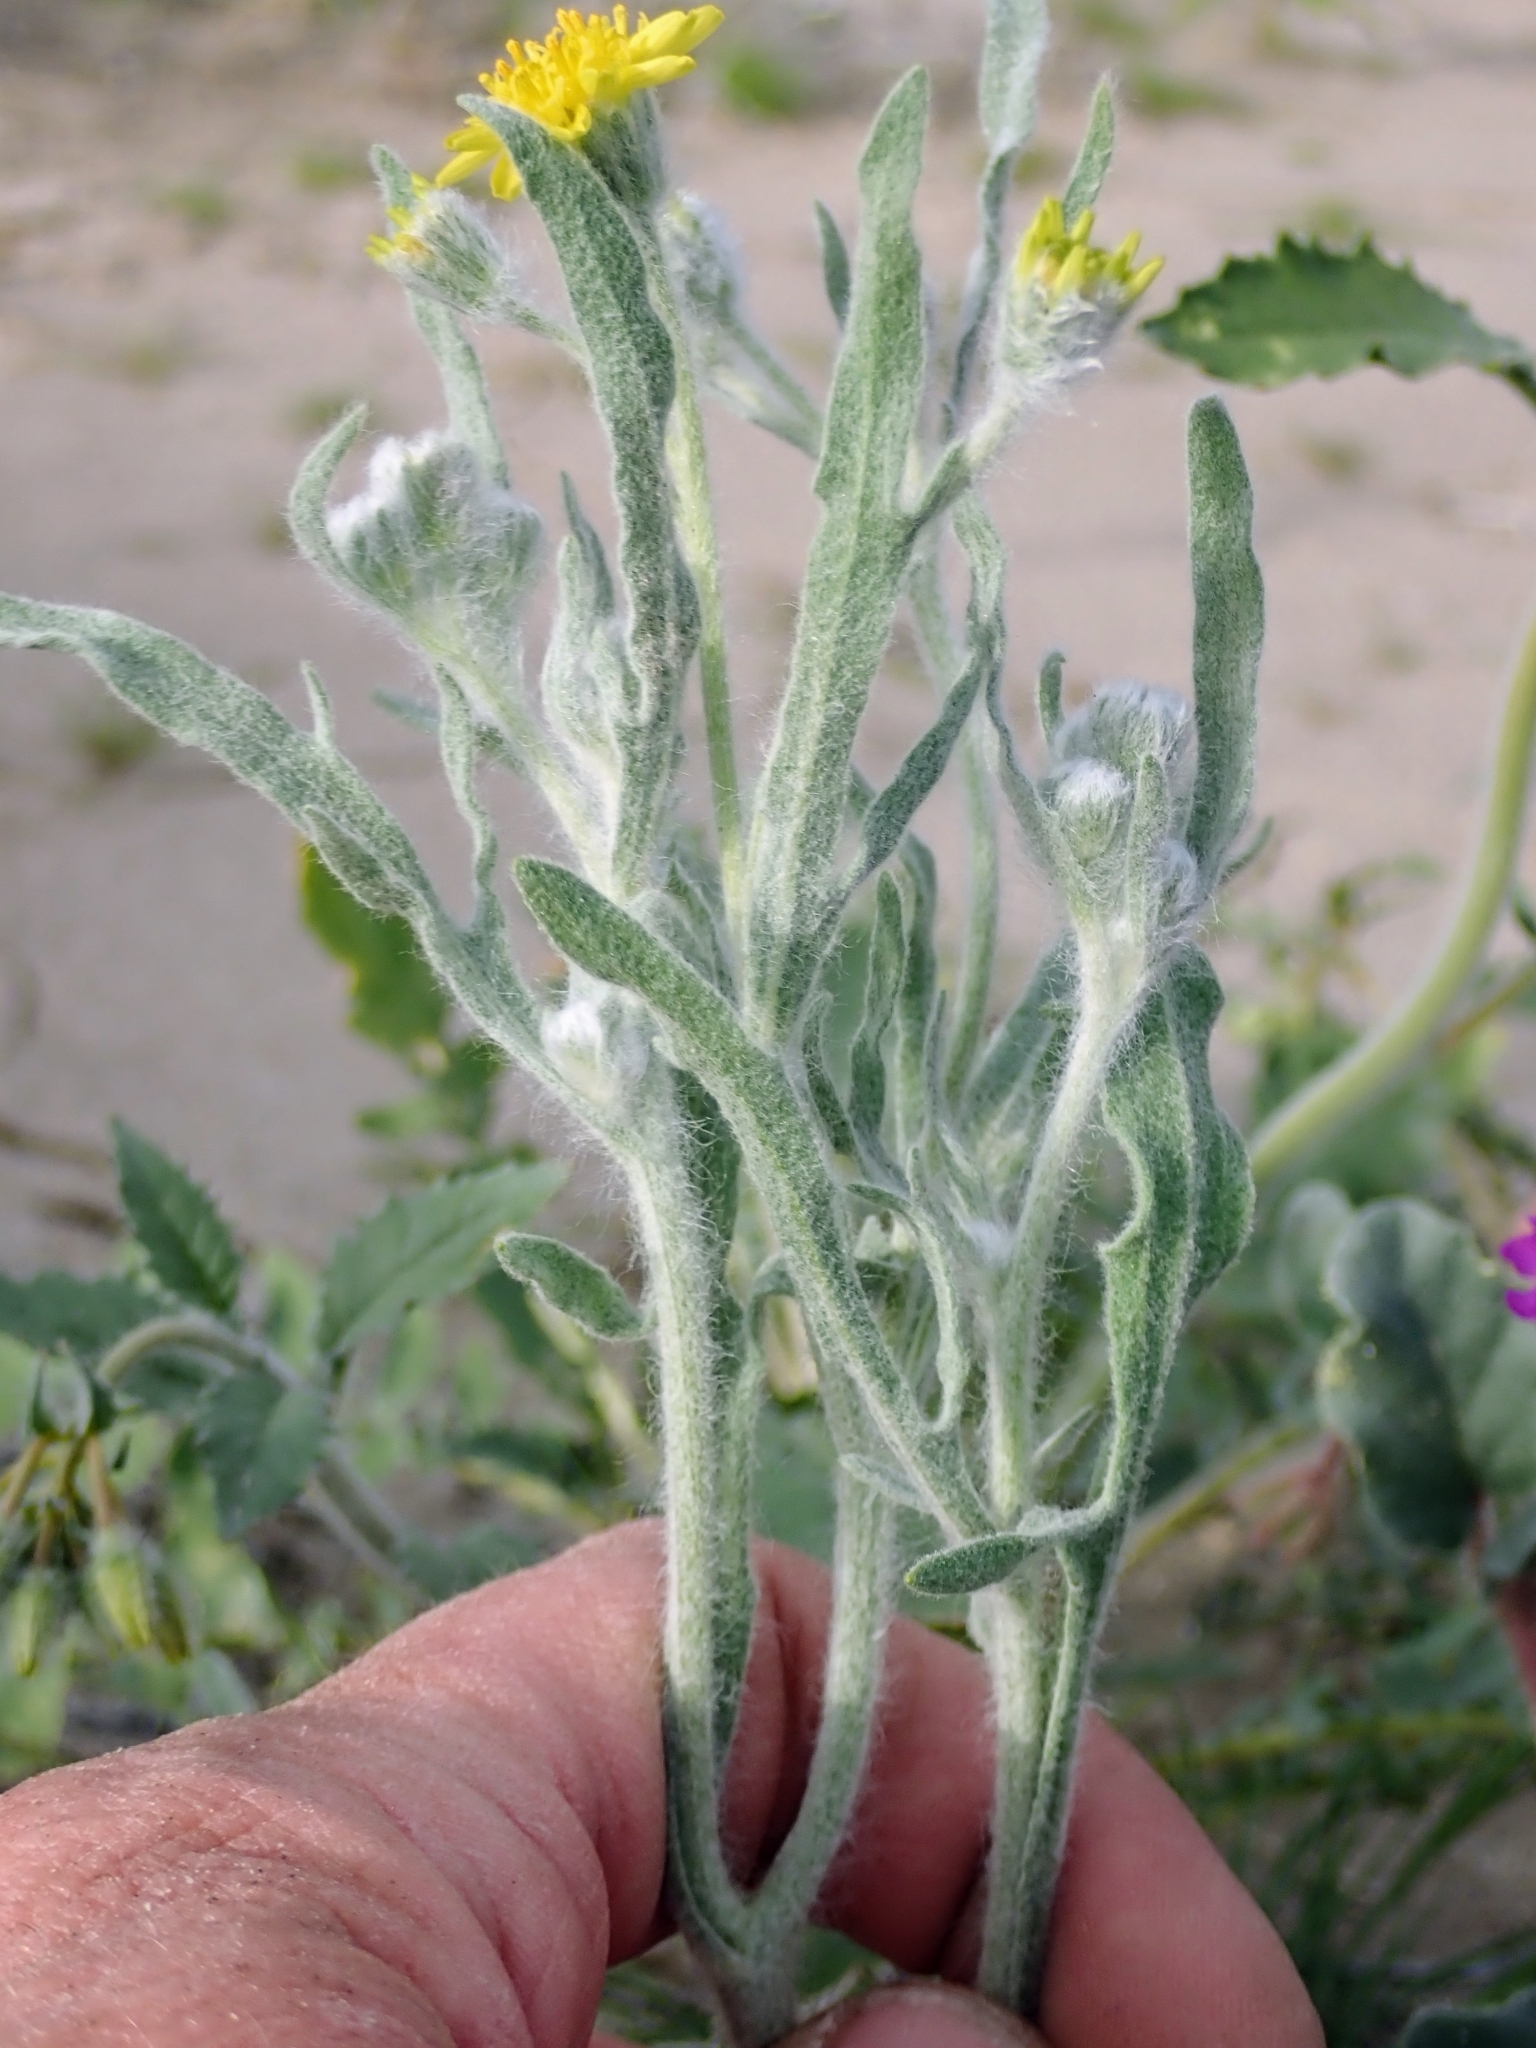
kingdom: Plantae
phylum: Tracheophyta
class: Magnoliopsida
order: Asterales
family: Asteraceae
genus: Baileya
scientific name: Baileya pauciradiata
